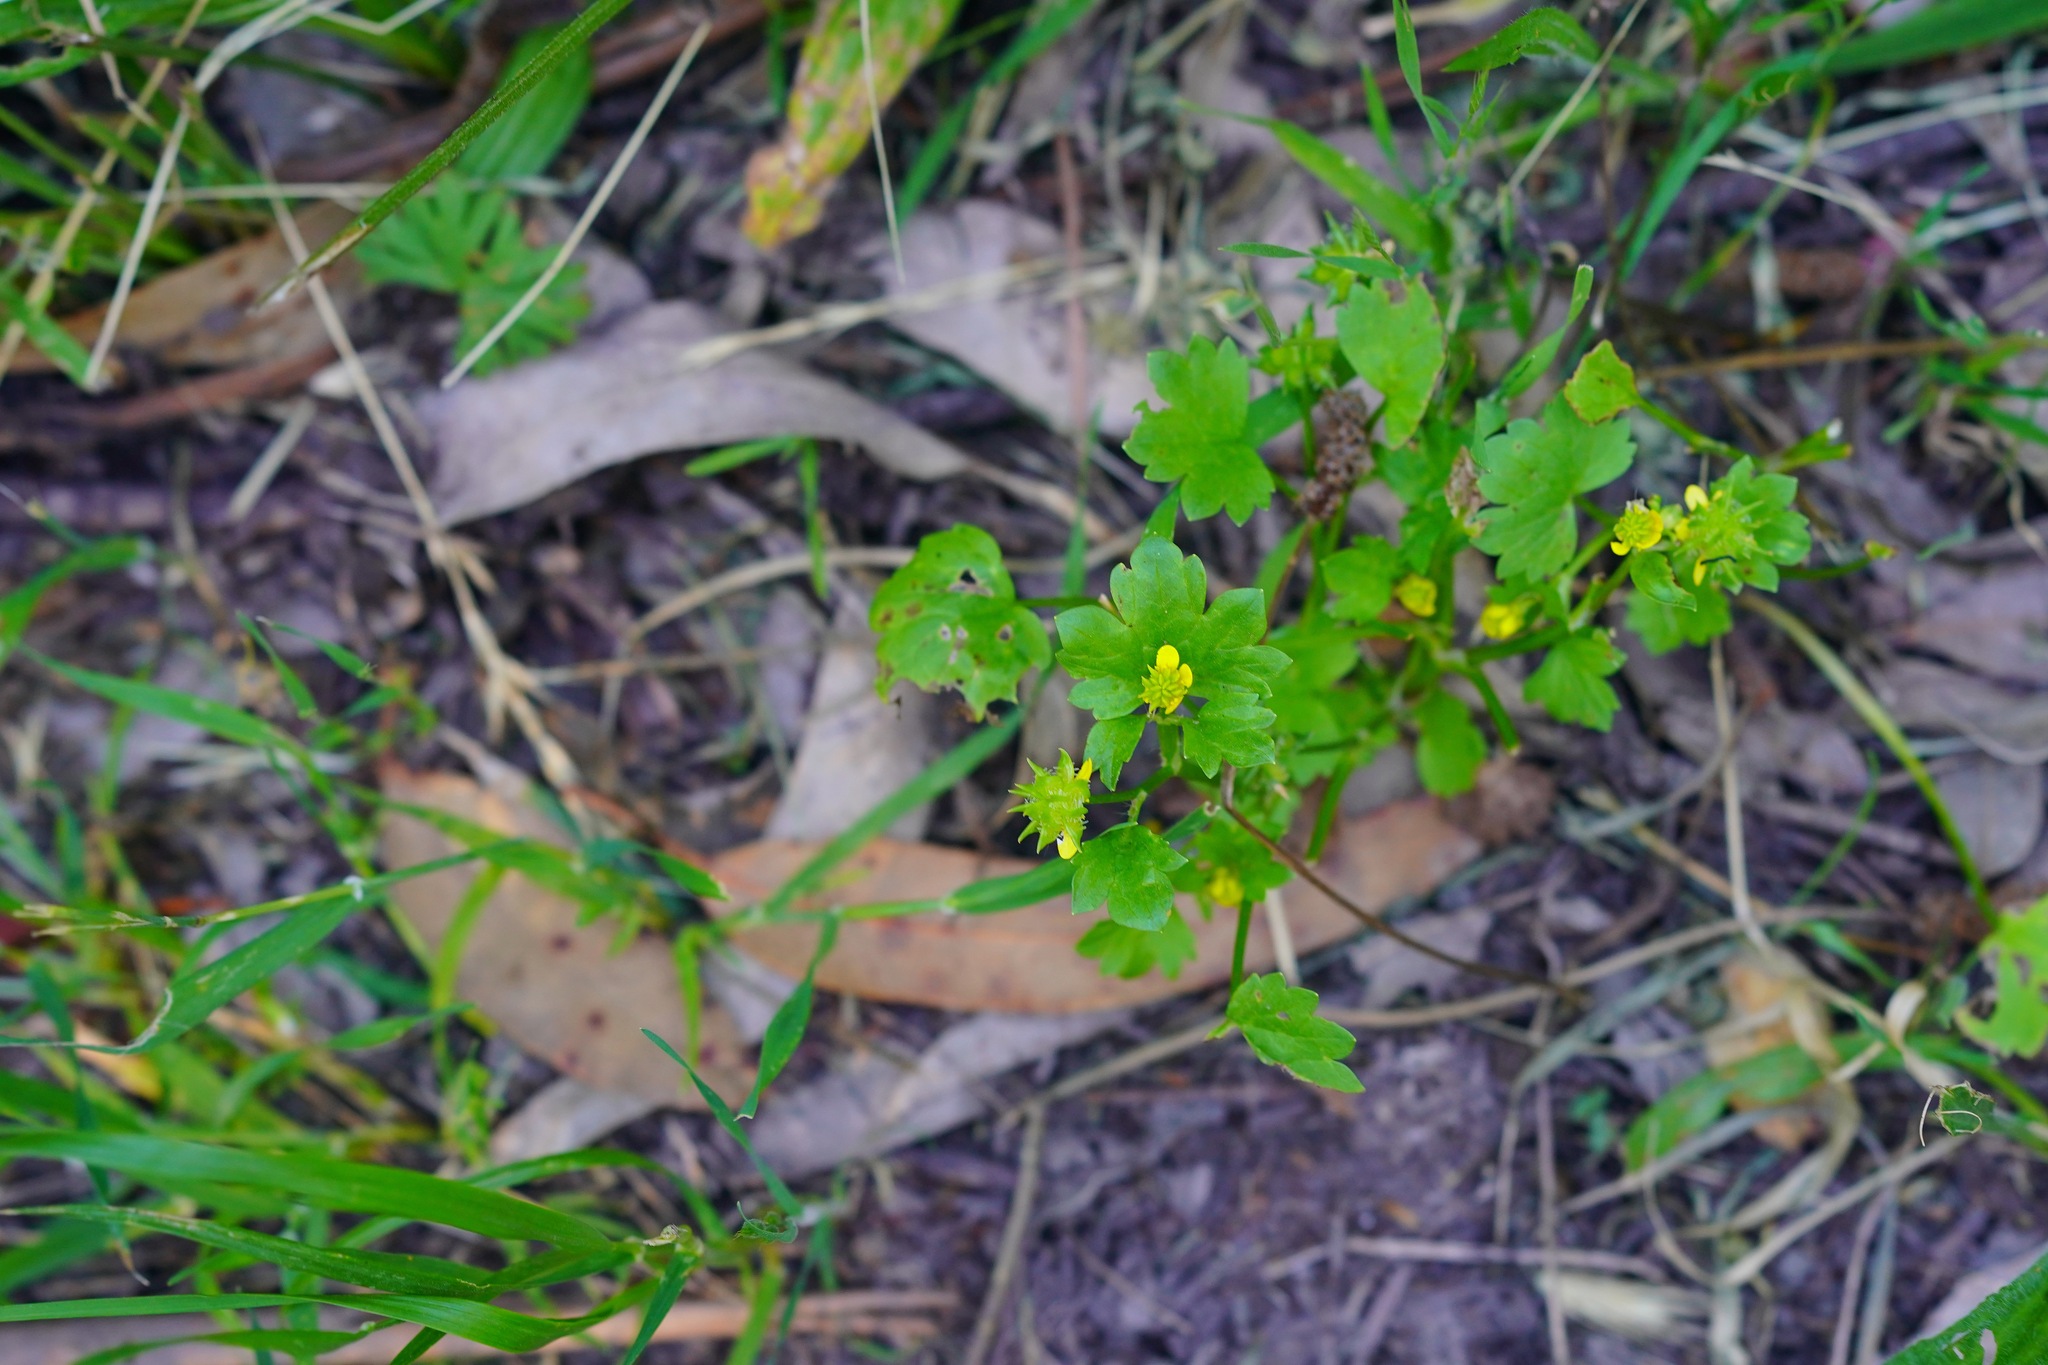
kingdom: Plantae
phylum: Tracheophyta
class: Magnoliopsida
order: Ranunculales
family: Ranunculaceae
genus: Ranunculus
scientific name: Ranunculus muricatus
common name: Rough-fruited buttercup
